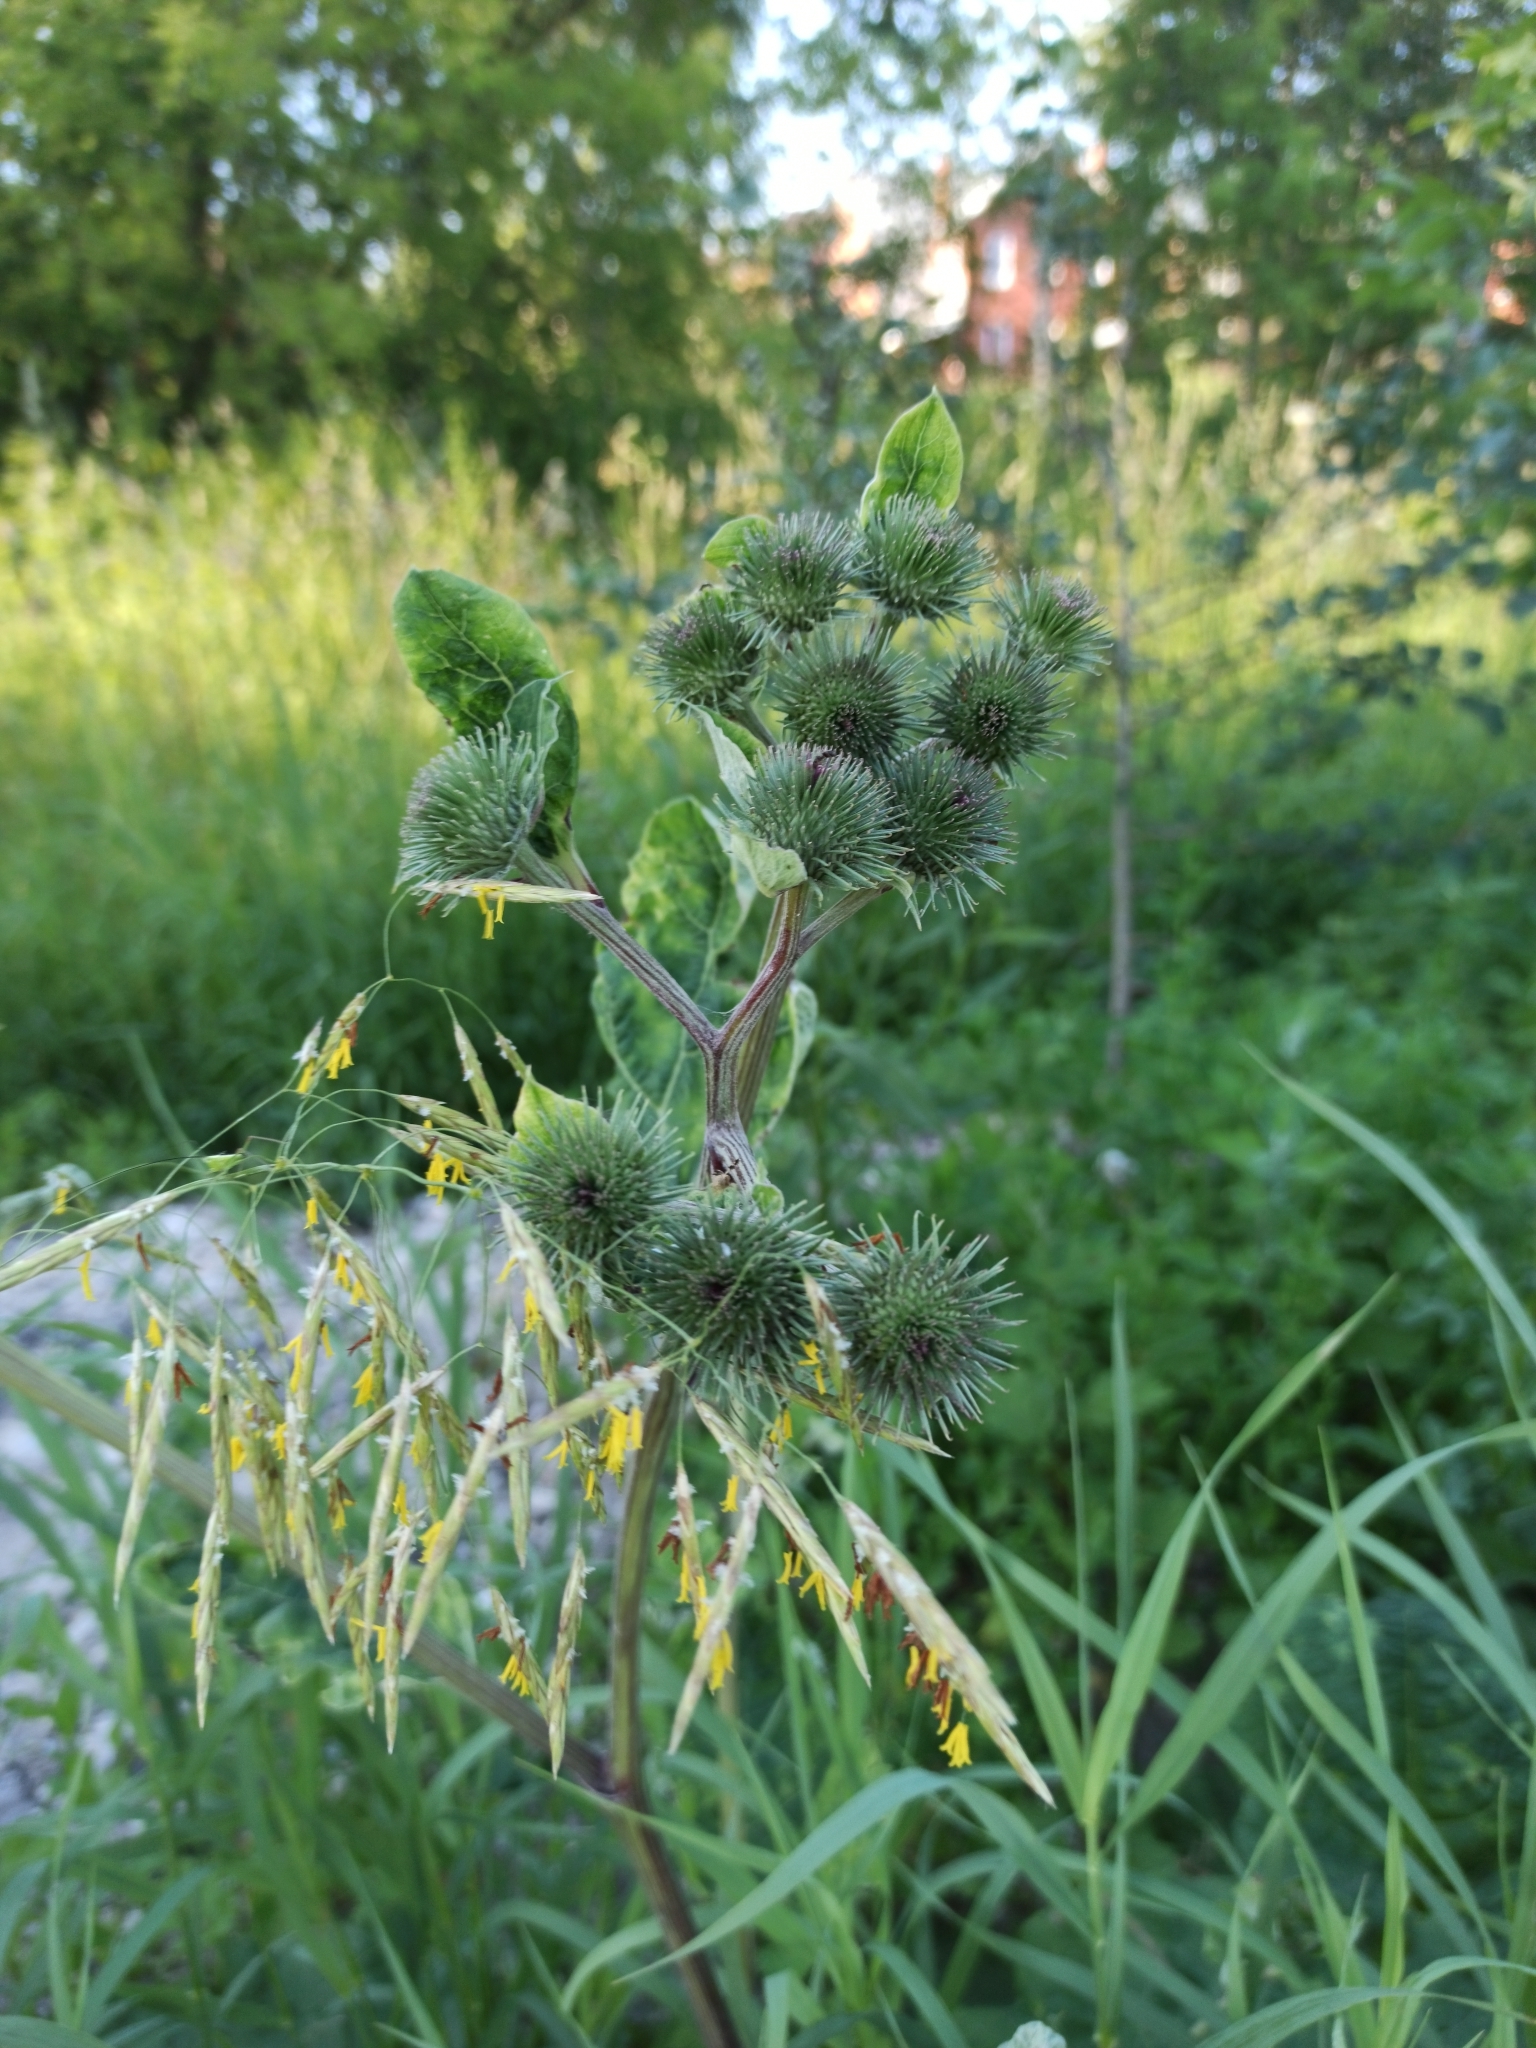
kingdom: Plantae
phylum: Tracheophyta
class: Magnoliopsida
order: Asterales
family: Asteraceae
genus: Arctium
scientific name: Arctium lappa
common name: Greater burdock
